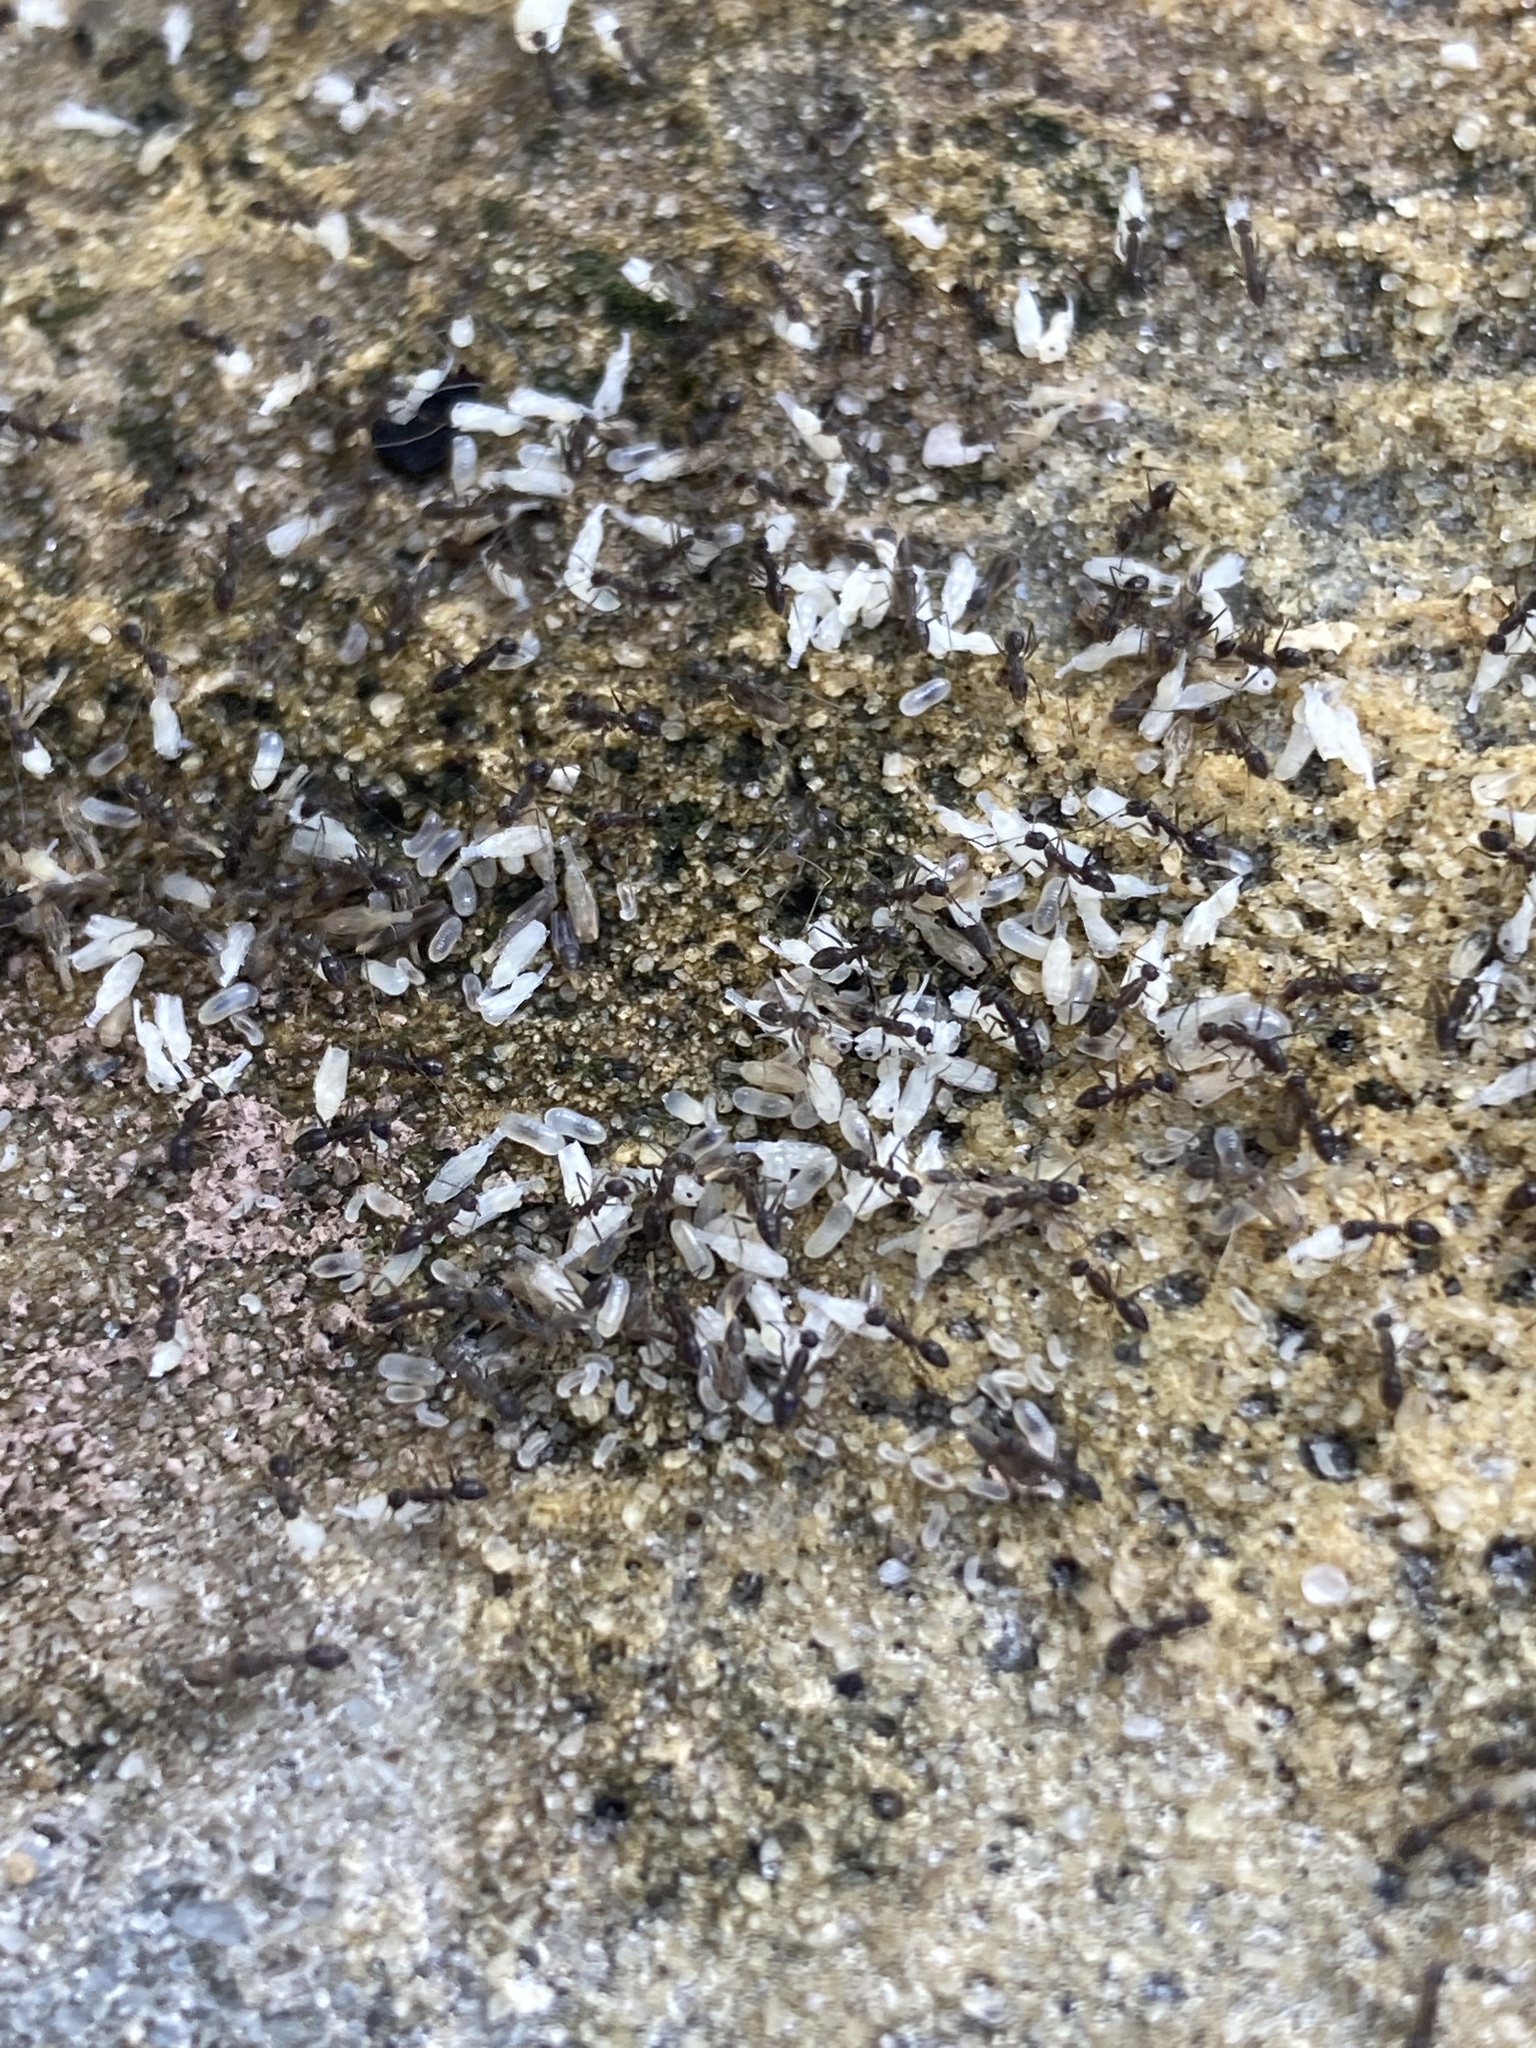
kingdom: Animalia
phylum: Arthropoda
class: Insecta
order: Hymenoptera
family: Formicidae
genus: Paratrechina
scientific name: Paratrechina longicornis
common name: Longhorned crazy ant
